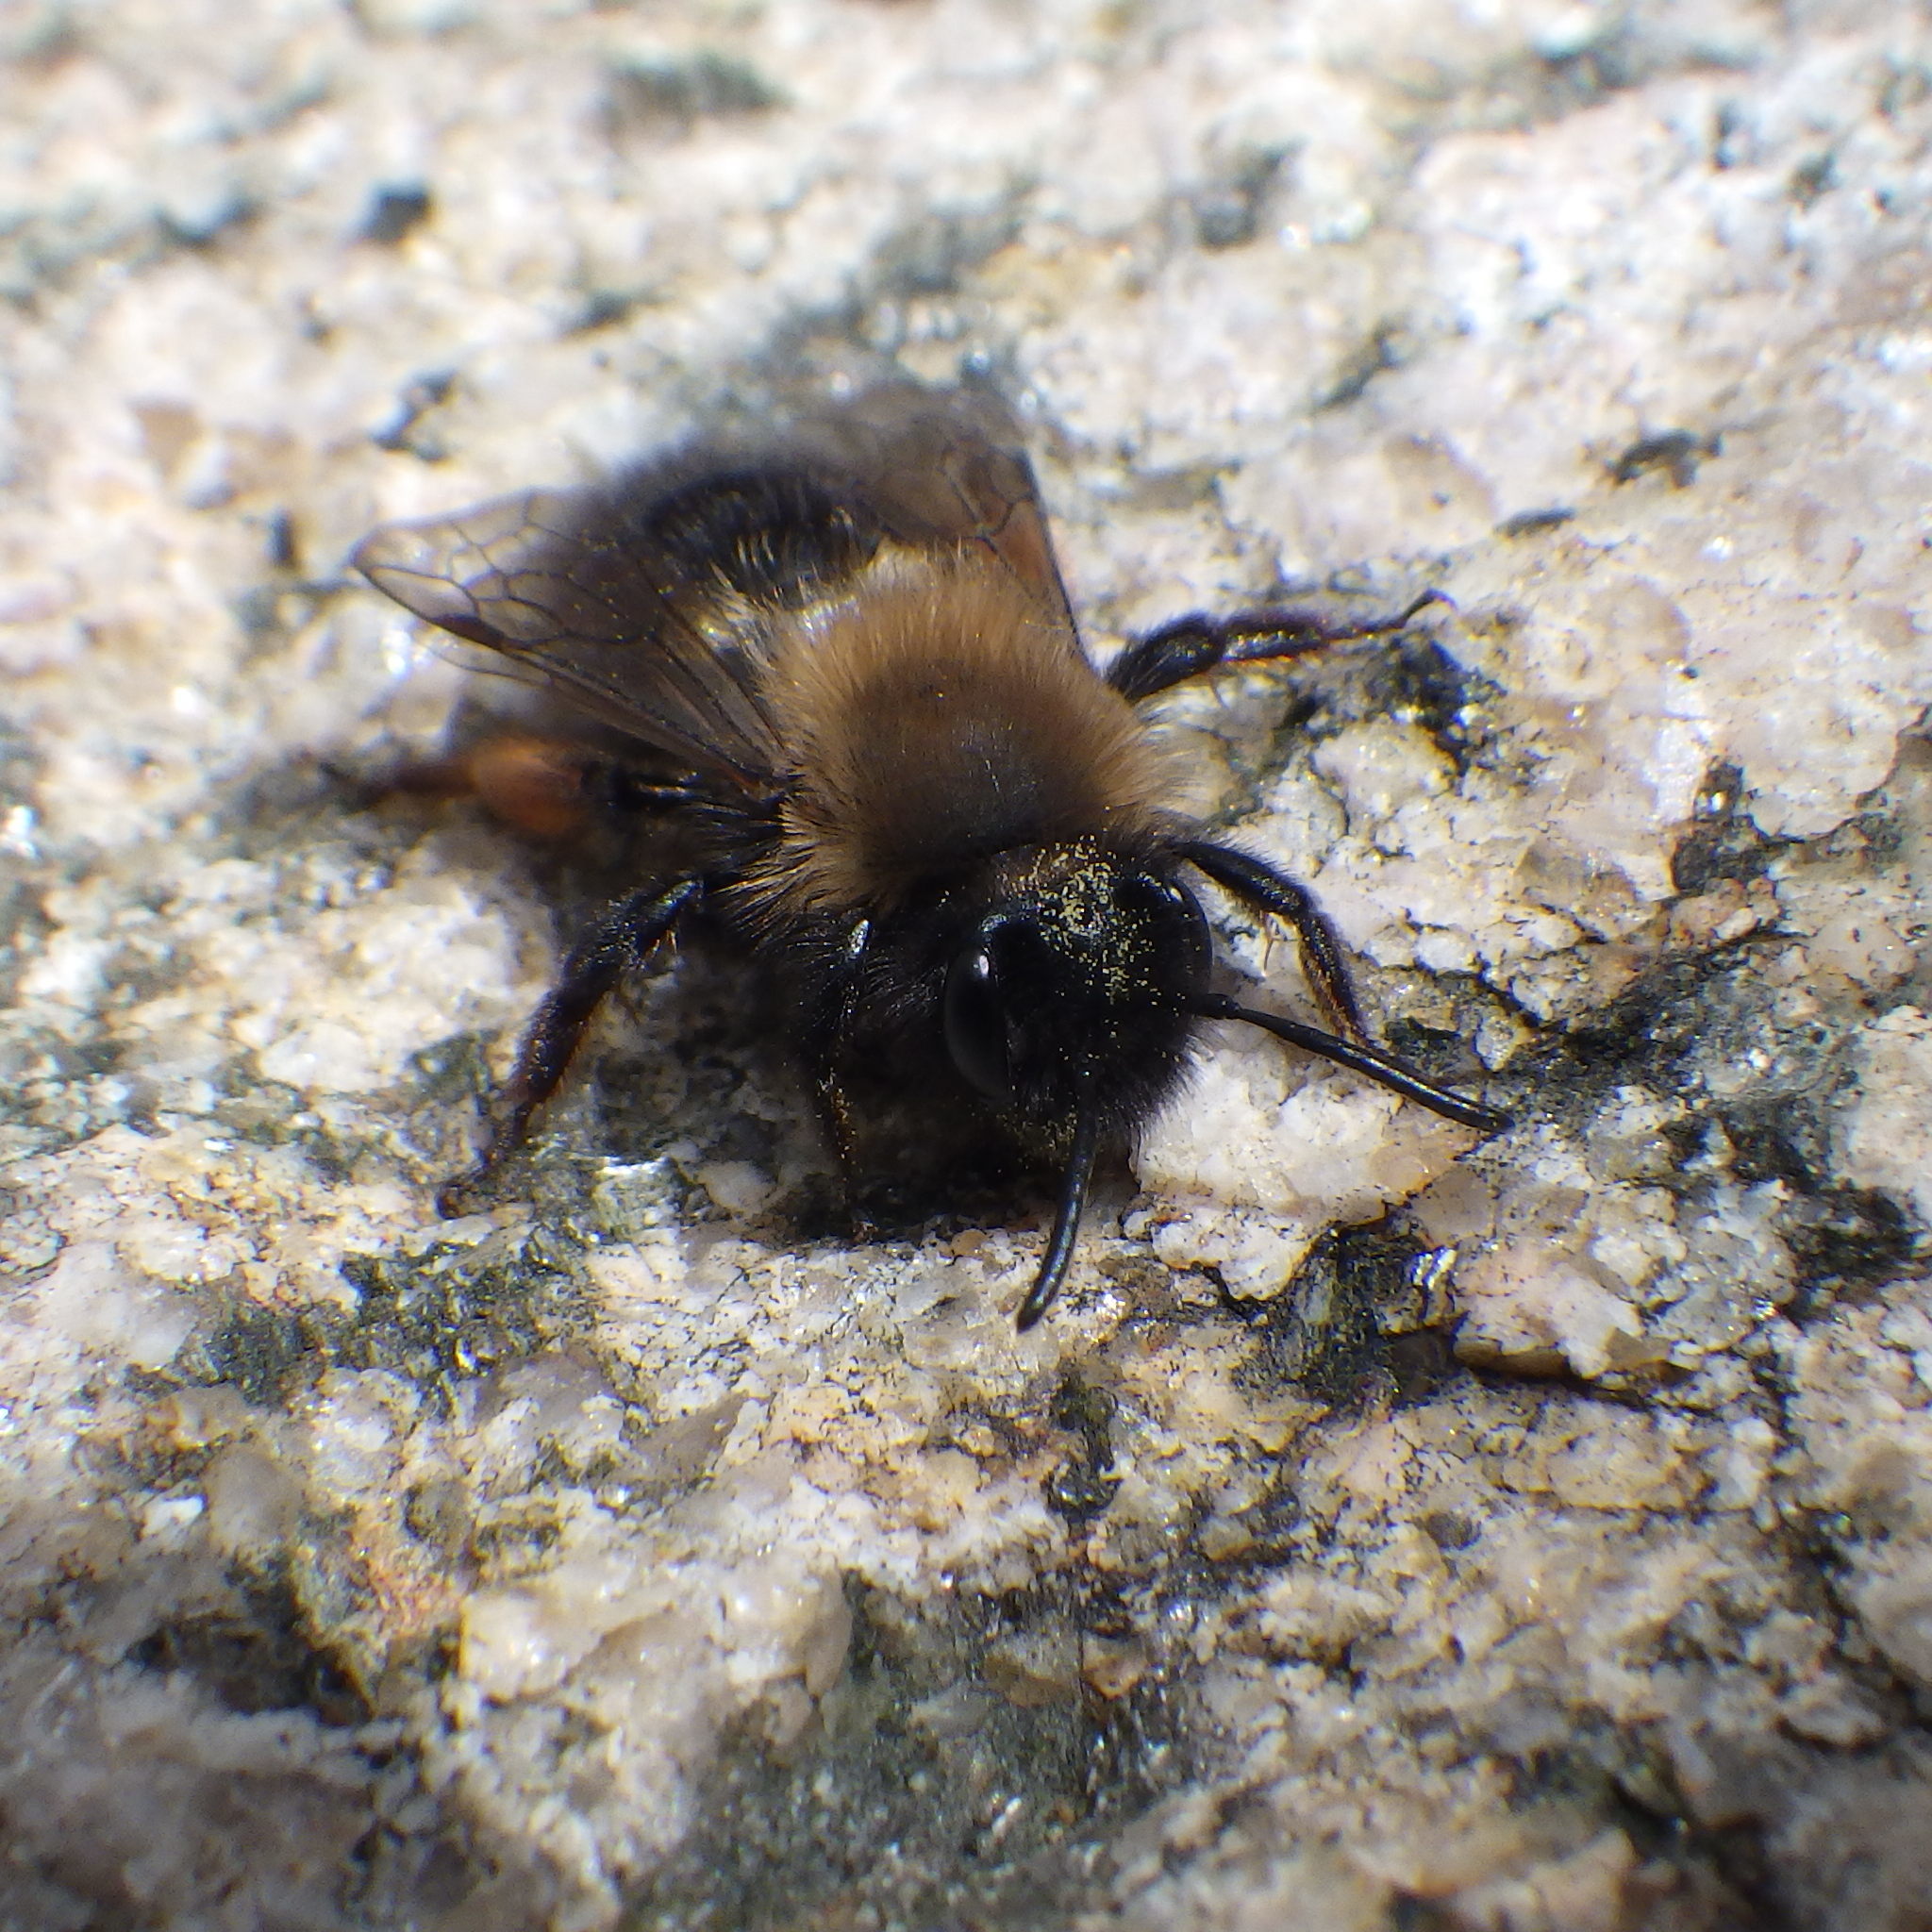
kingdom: Animalia
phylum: Arthropoda
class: Insecta
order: Hymenoptera
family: Andrenidae
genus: Andrena
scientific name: Andrena clarkella
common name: Clarke's mining bee
